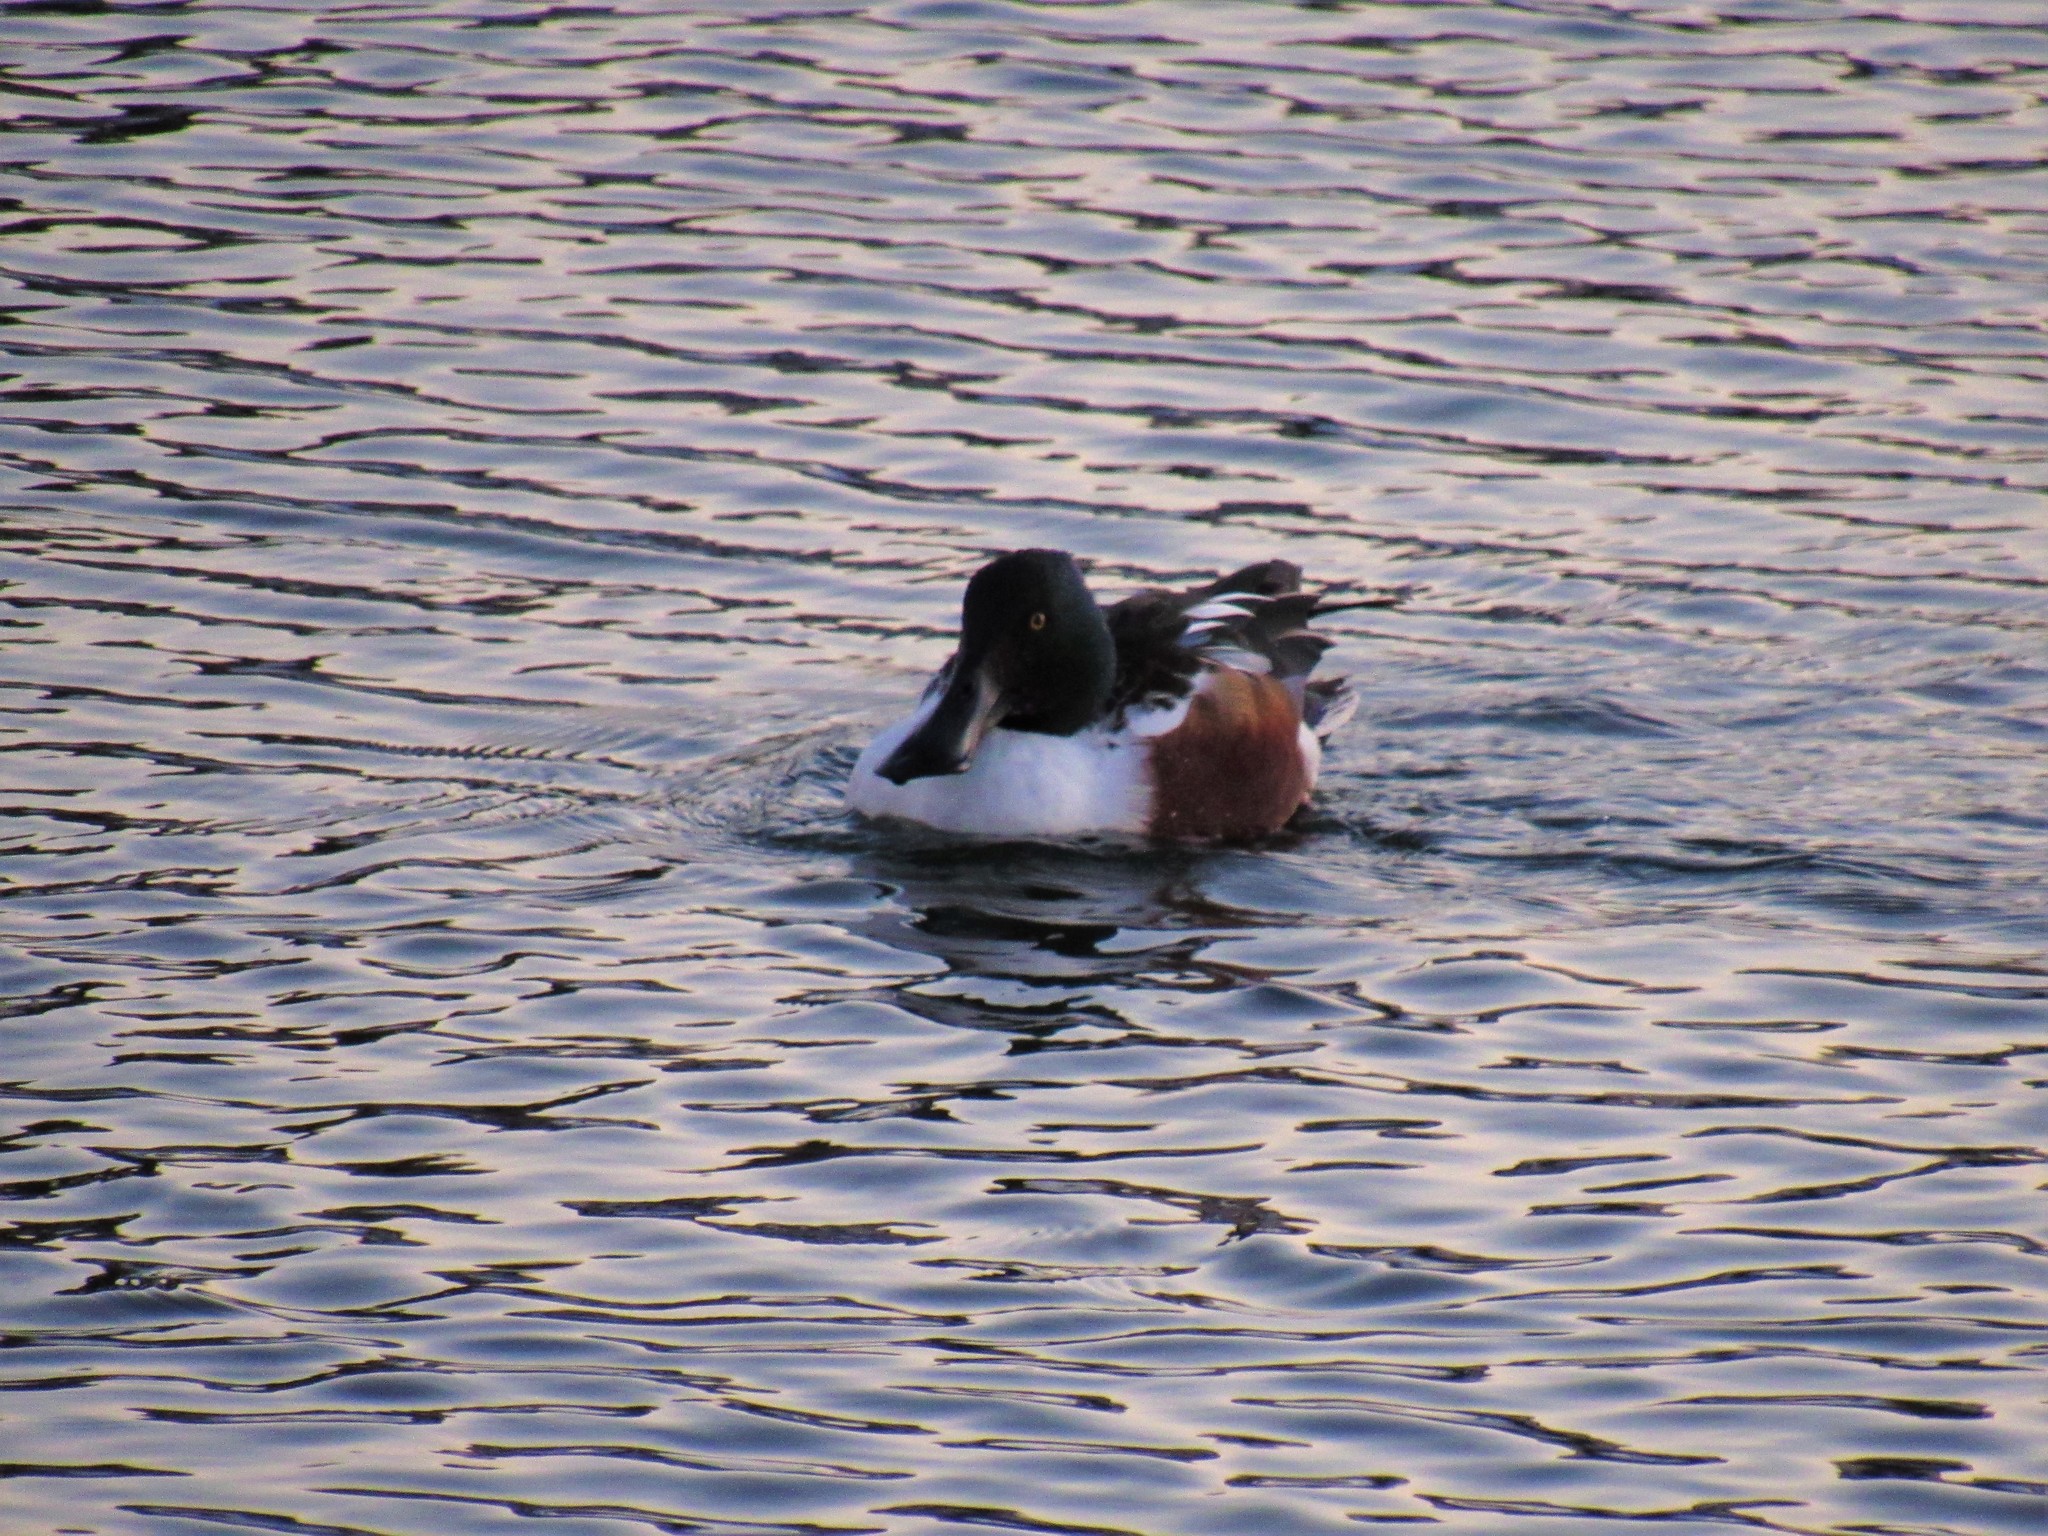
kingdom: Animalia
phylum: Chordata
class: Aves
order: Anseriformes
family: Anatidae
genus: Spatula
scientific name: Spatula clypeata
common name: Northern shoveler
